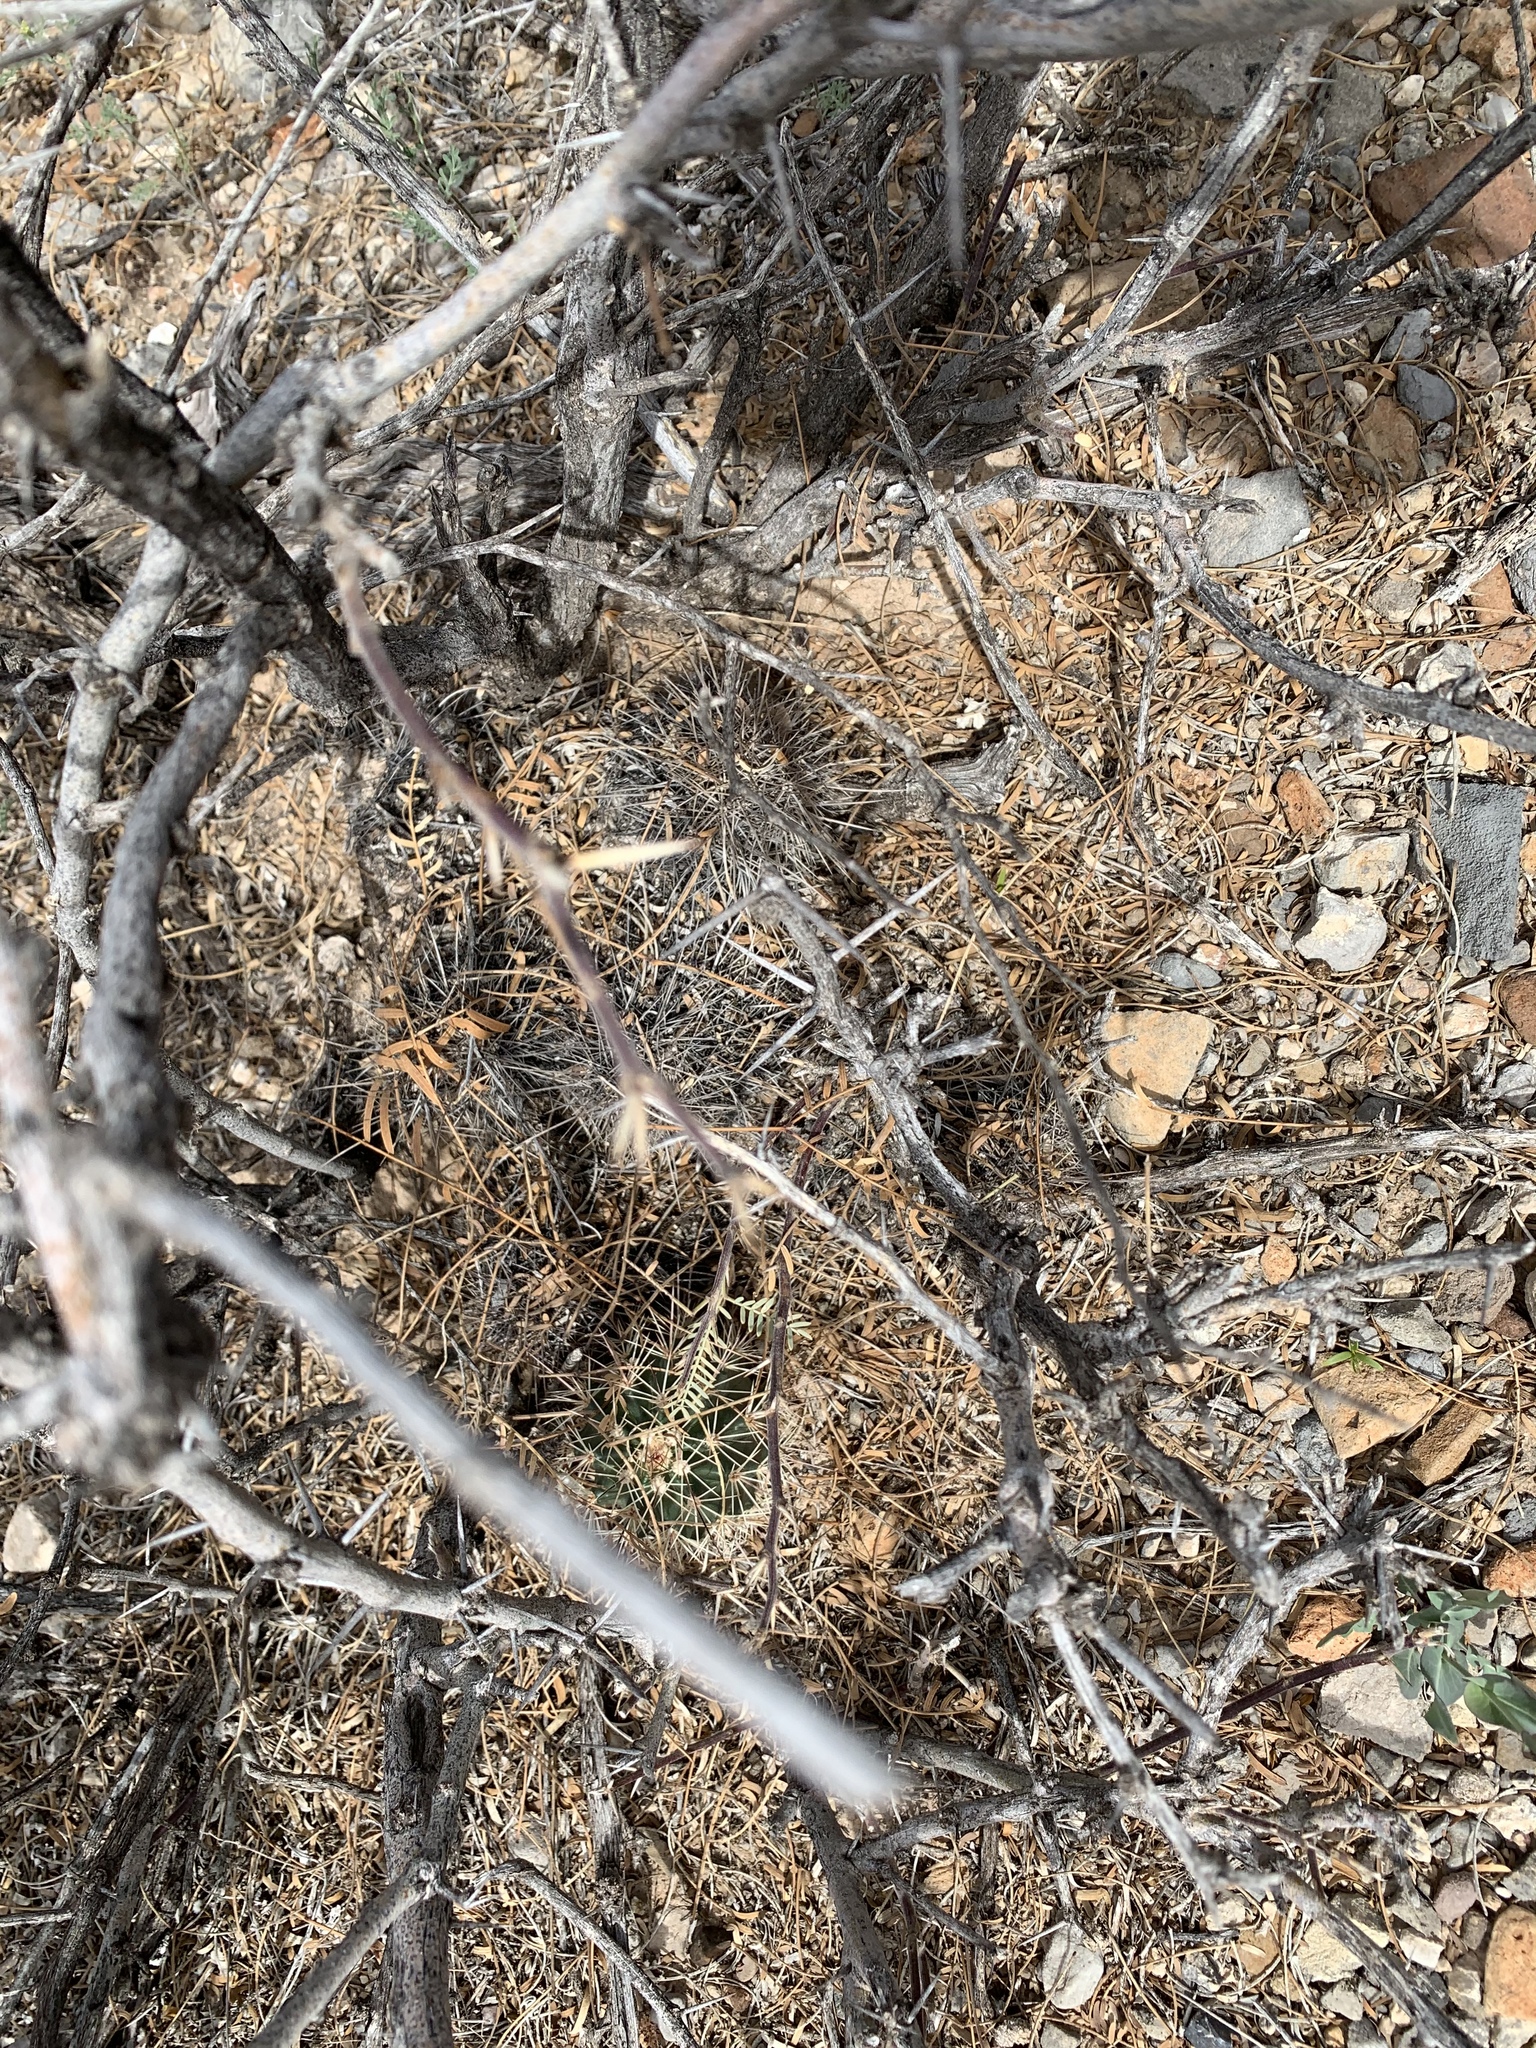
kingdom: Plantae
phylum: Tracheophyta
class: Magnoliopsida
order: Caryophyllales
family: Cactaceae
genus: Echinocereus
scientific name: Echinocereus coccineus
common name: Scarlet hedgehog cactus
